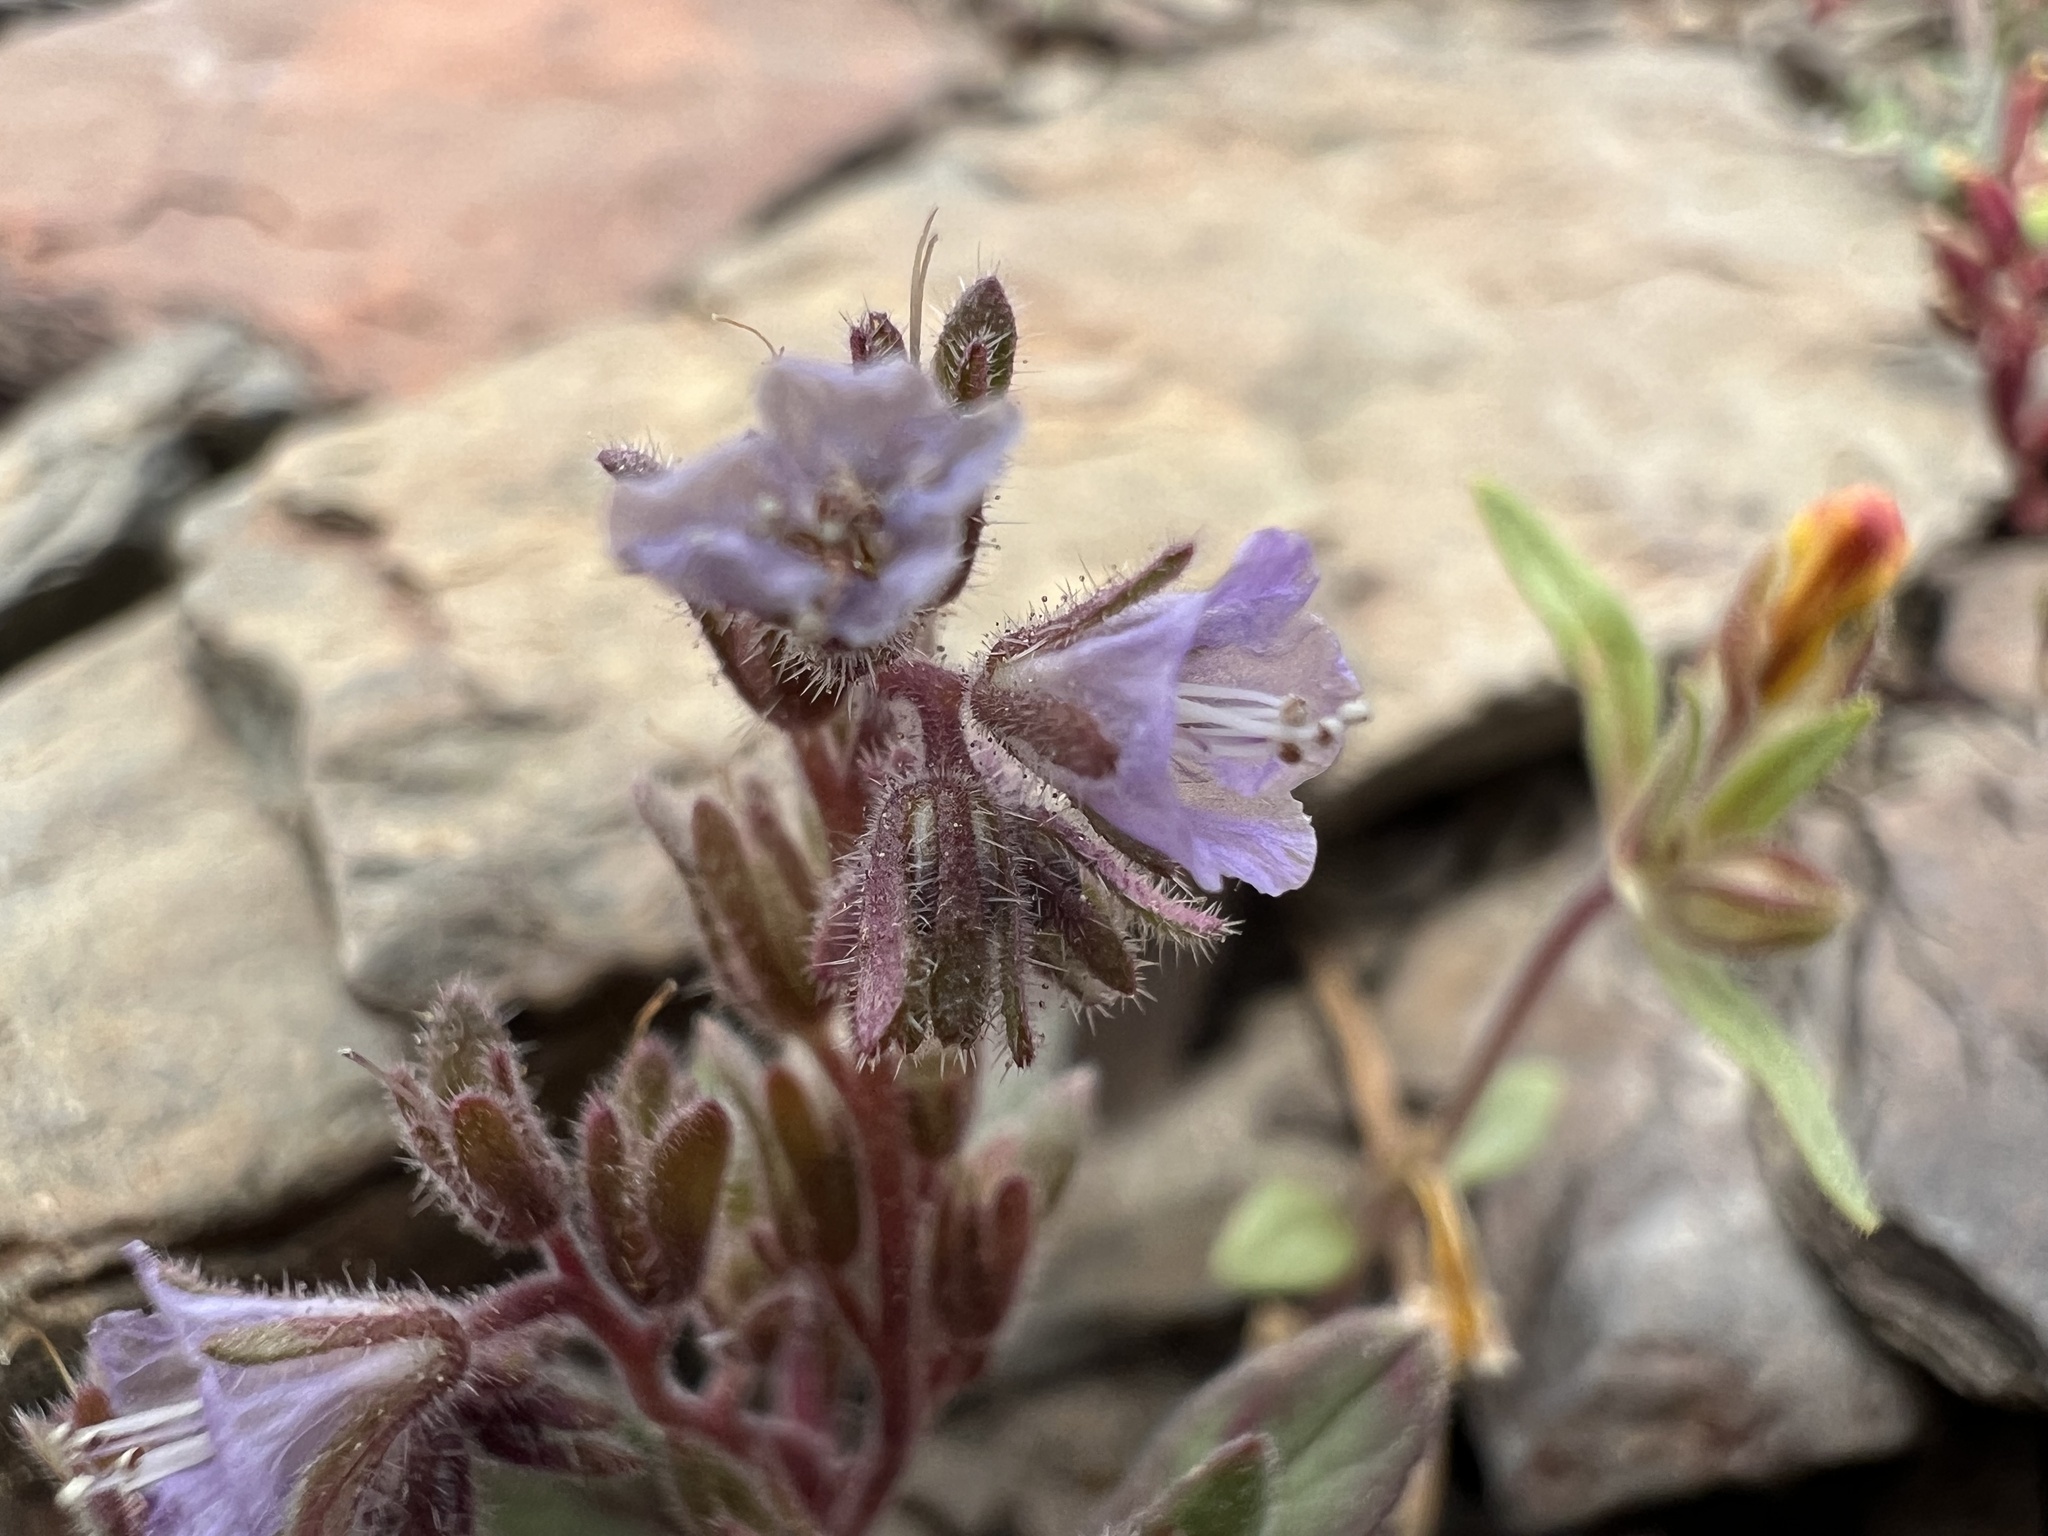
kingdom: Plantae
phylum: Tracheophyta
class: Magnoliopsida
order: Boraginales
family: Hydrophyllaceae
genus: Phacelia
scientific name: Phacelia austromontana
